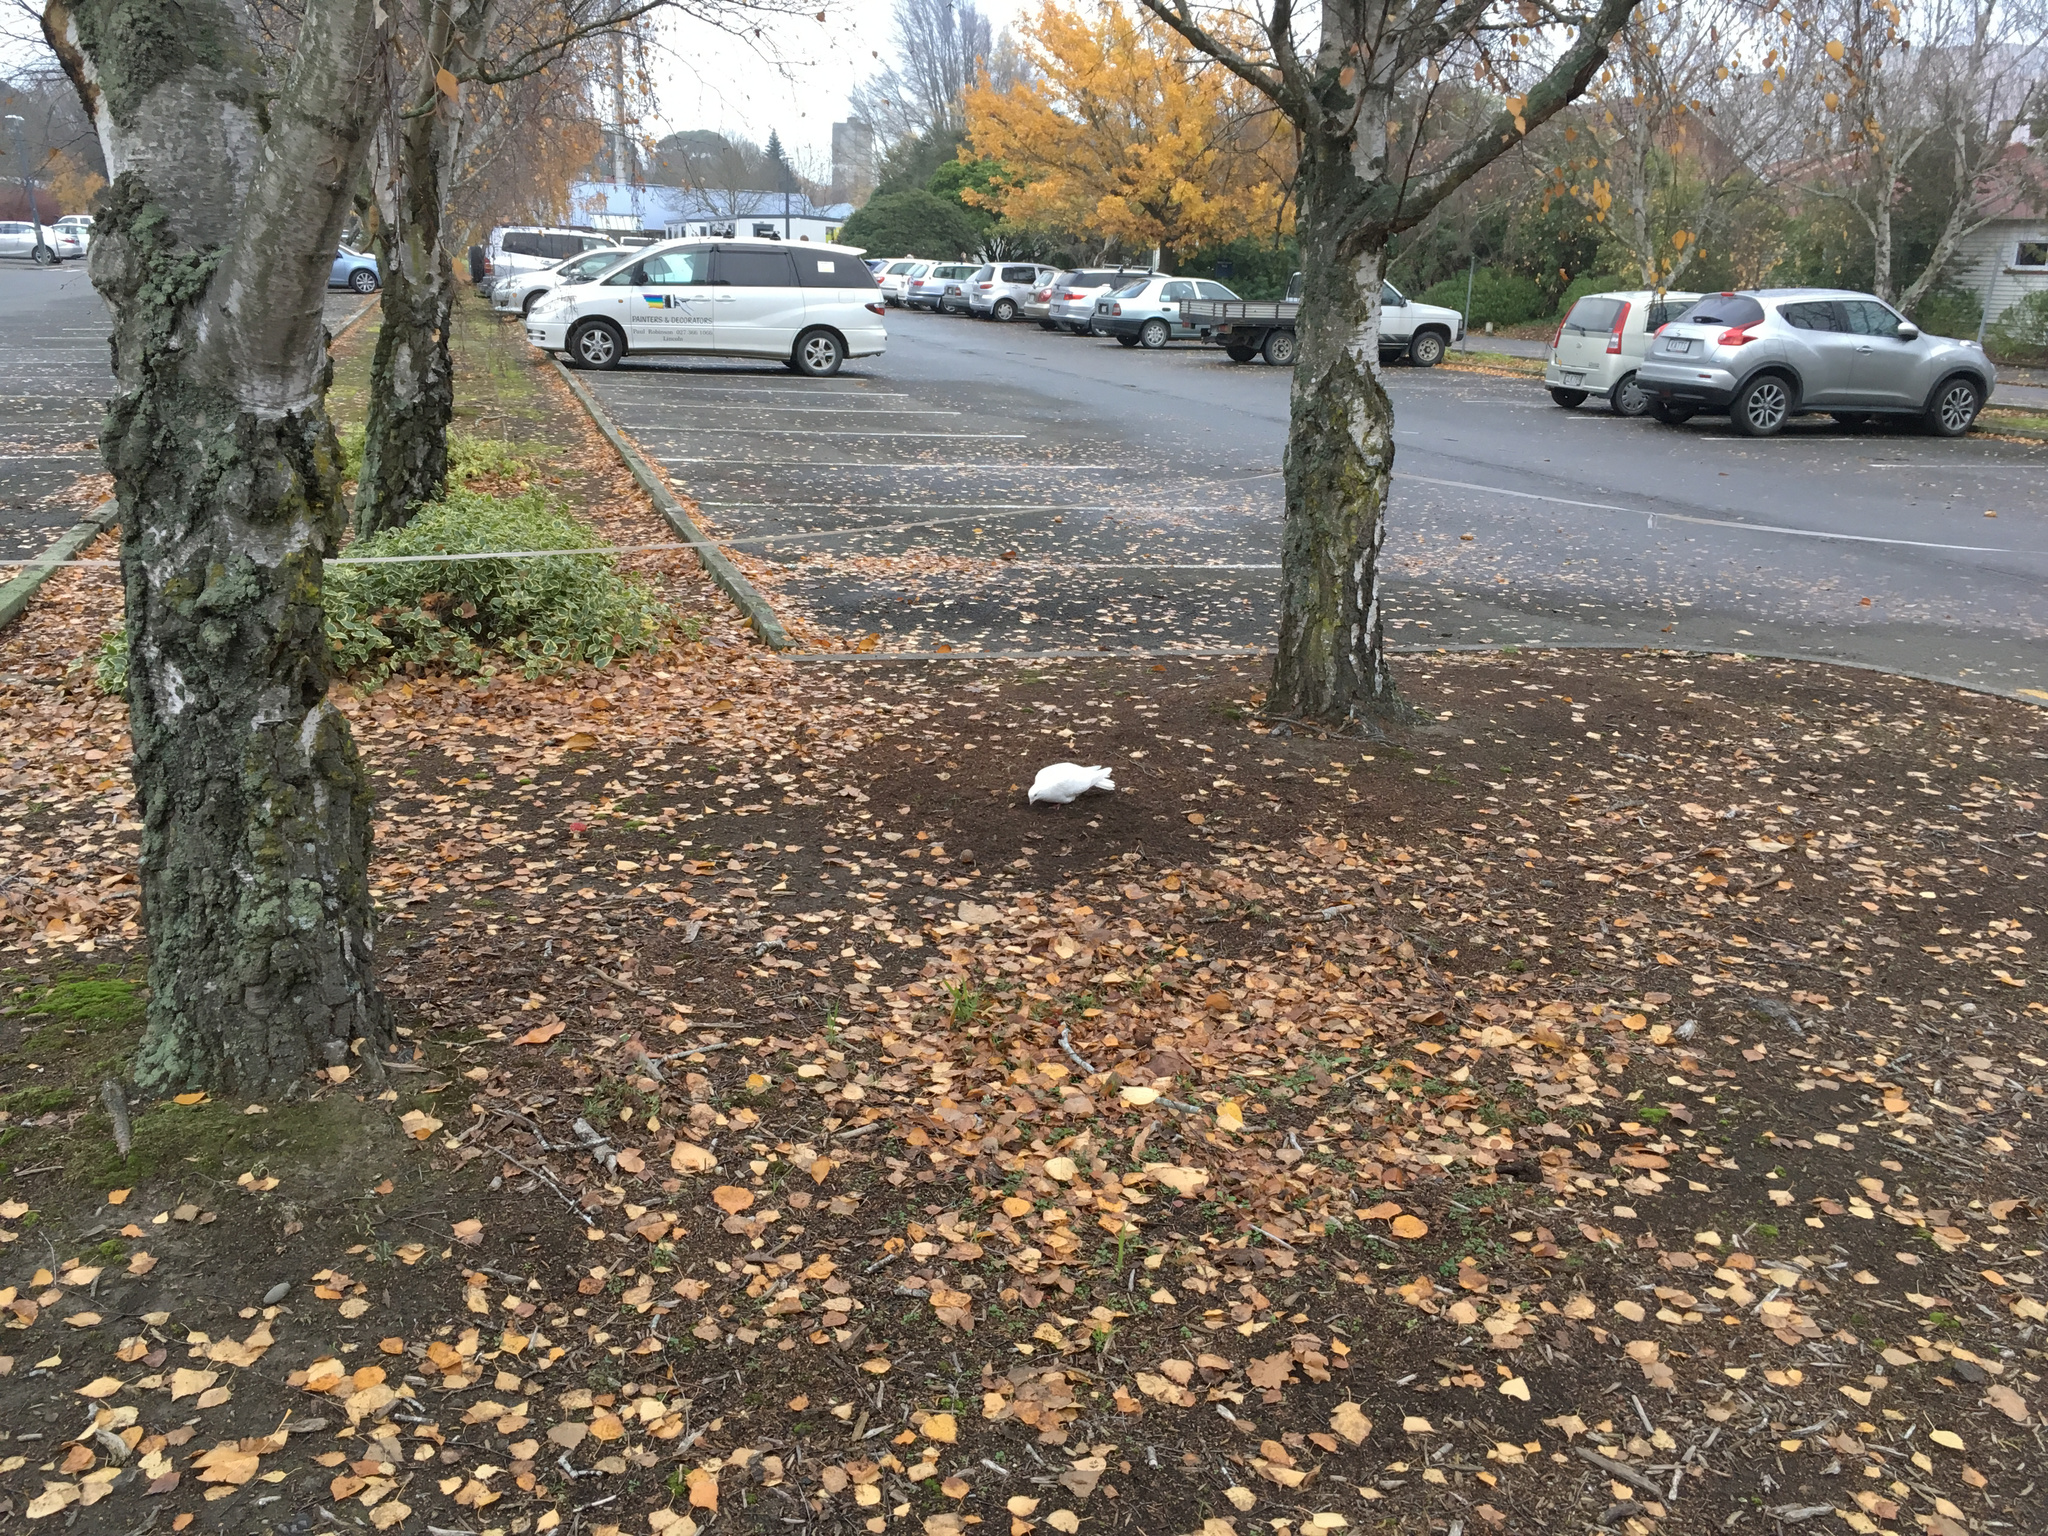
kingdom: Animalia
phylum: Chordata
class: Aves
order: Columbiformes
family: Columbidae
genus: Columba
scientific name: Columba livia
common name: Rock pigeon
